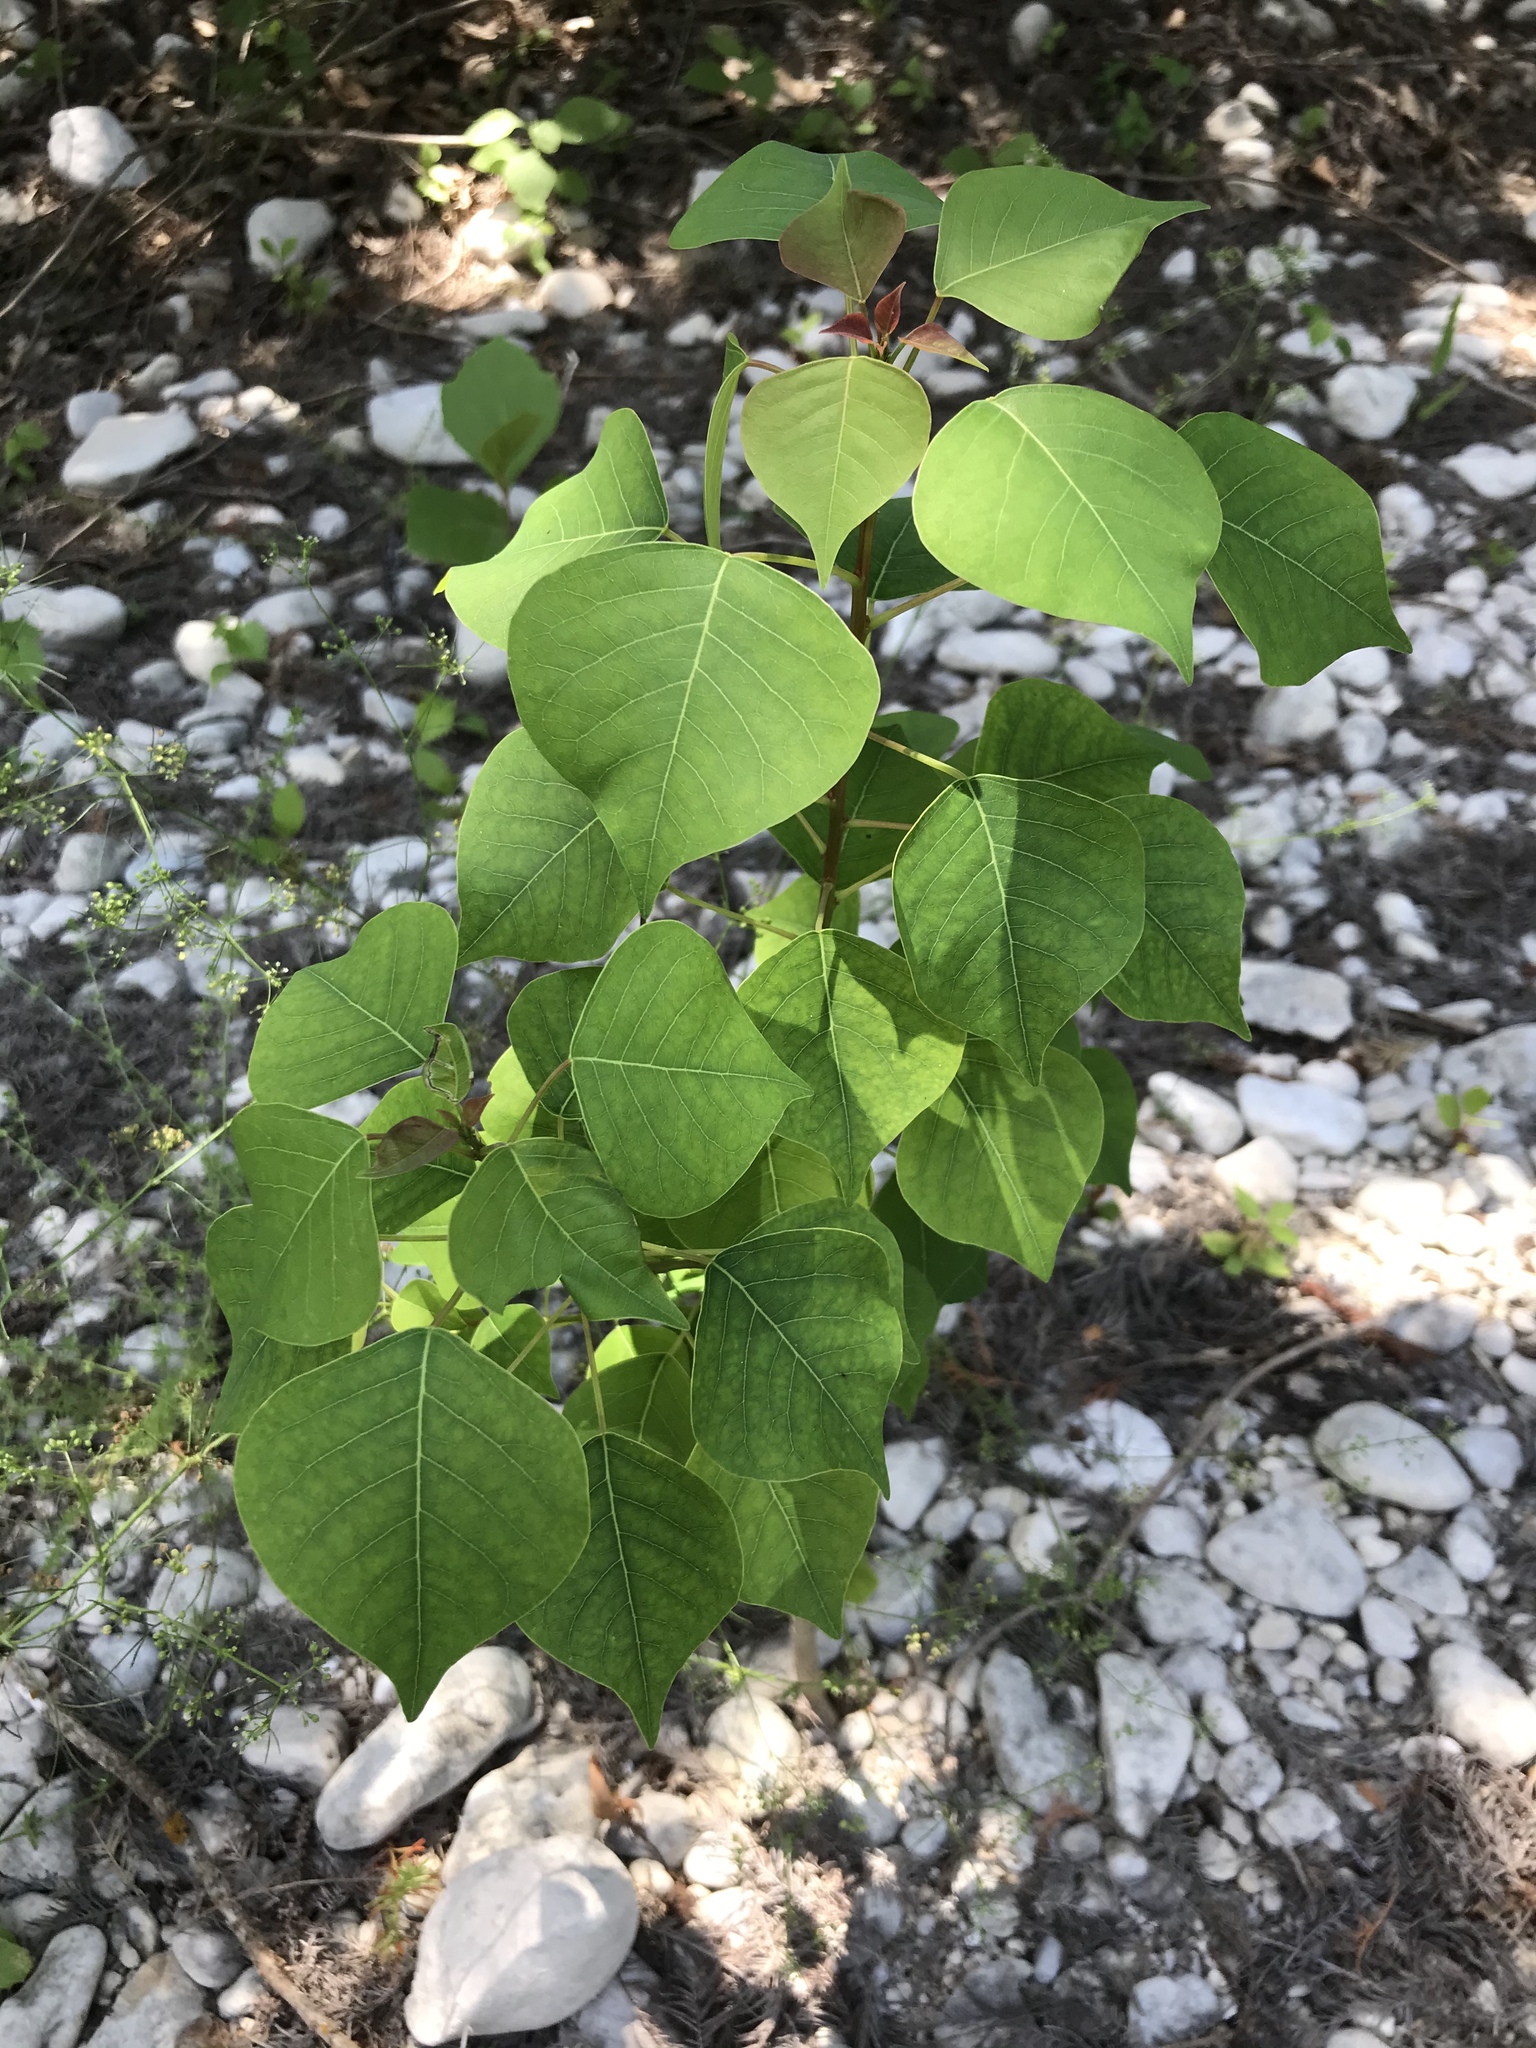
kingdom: Plantae
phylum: Tracheophyta
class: Magnoliopsida
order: Malpighiales
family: Euphorbiaceae
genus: Triadica
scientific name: Triadica sebifera
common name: Chinese tallow
